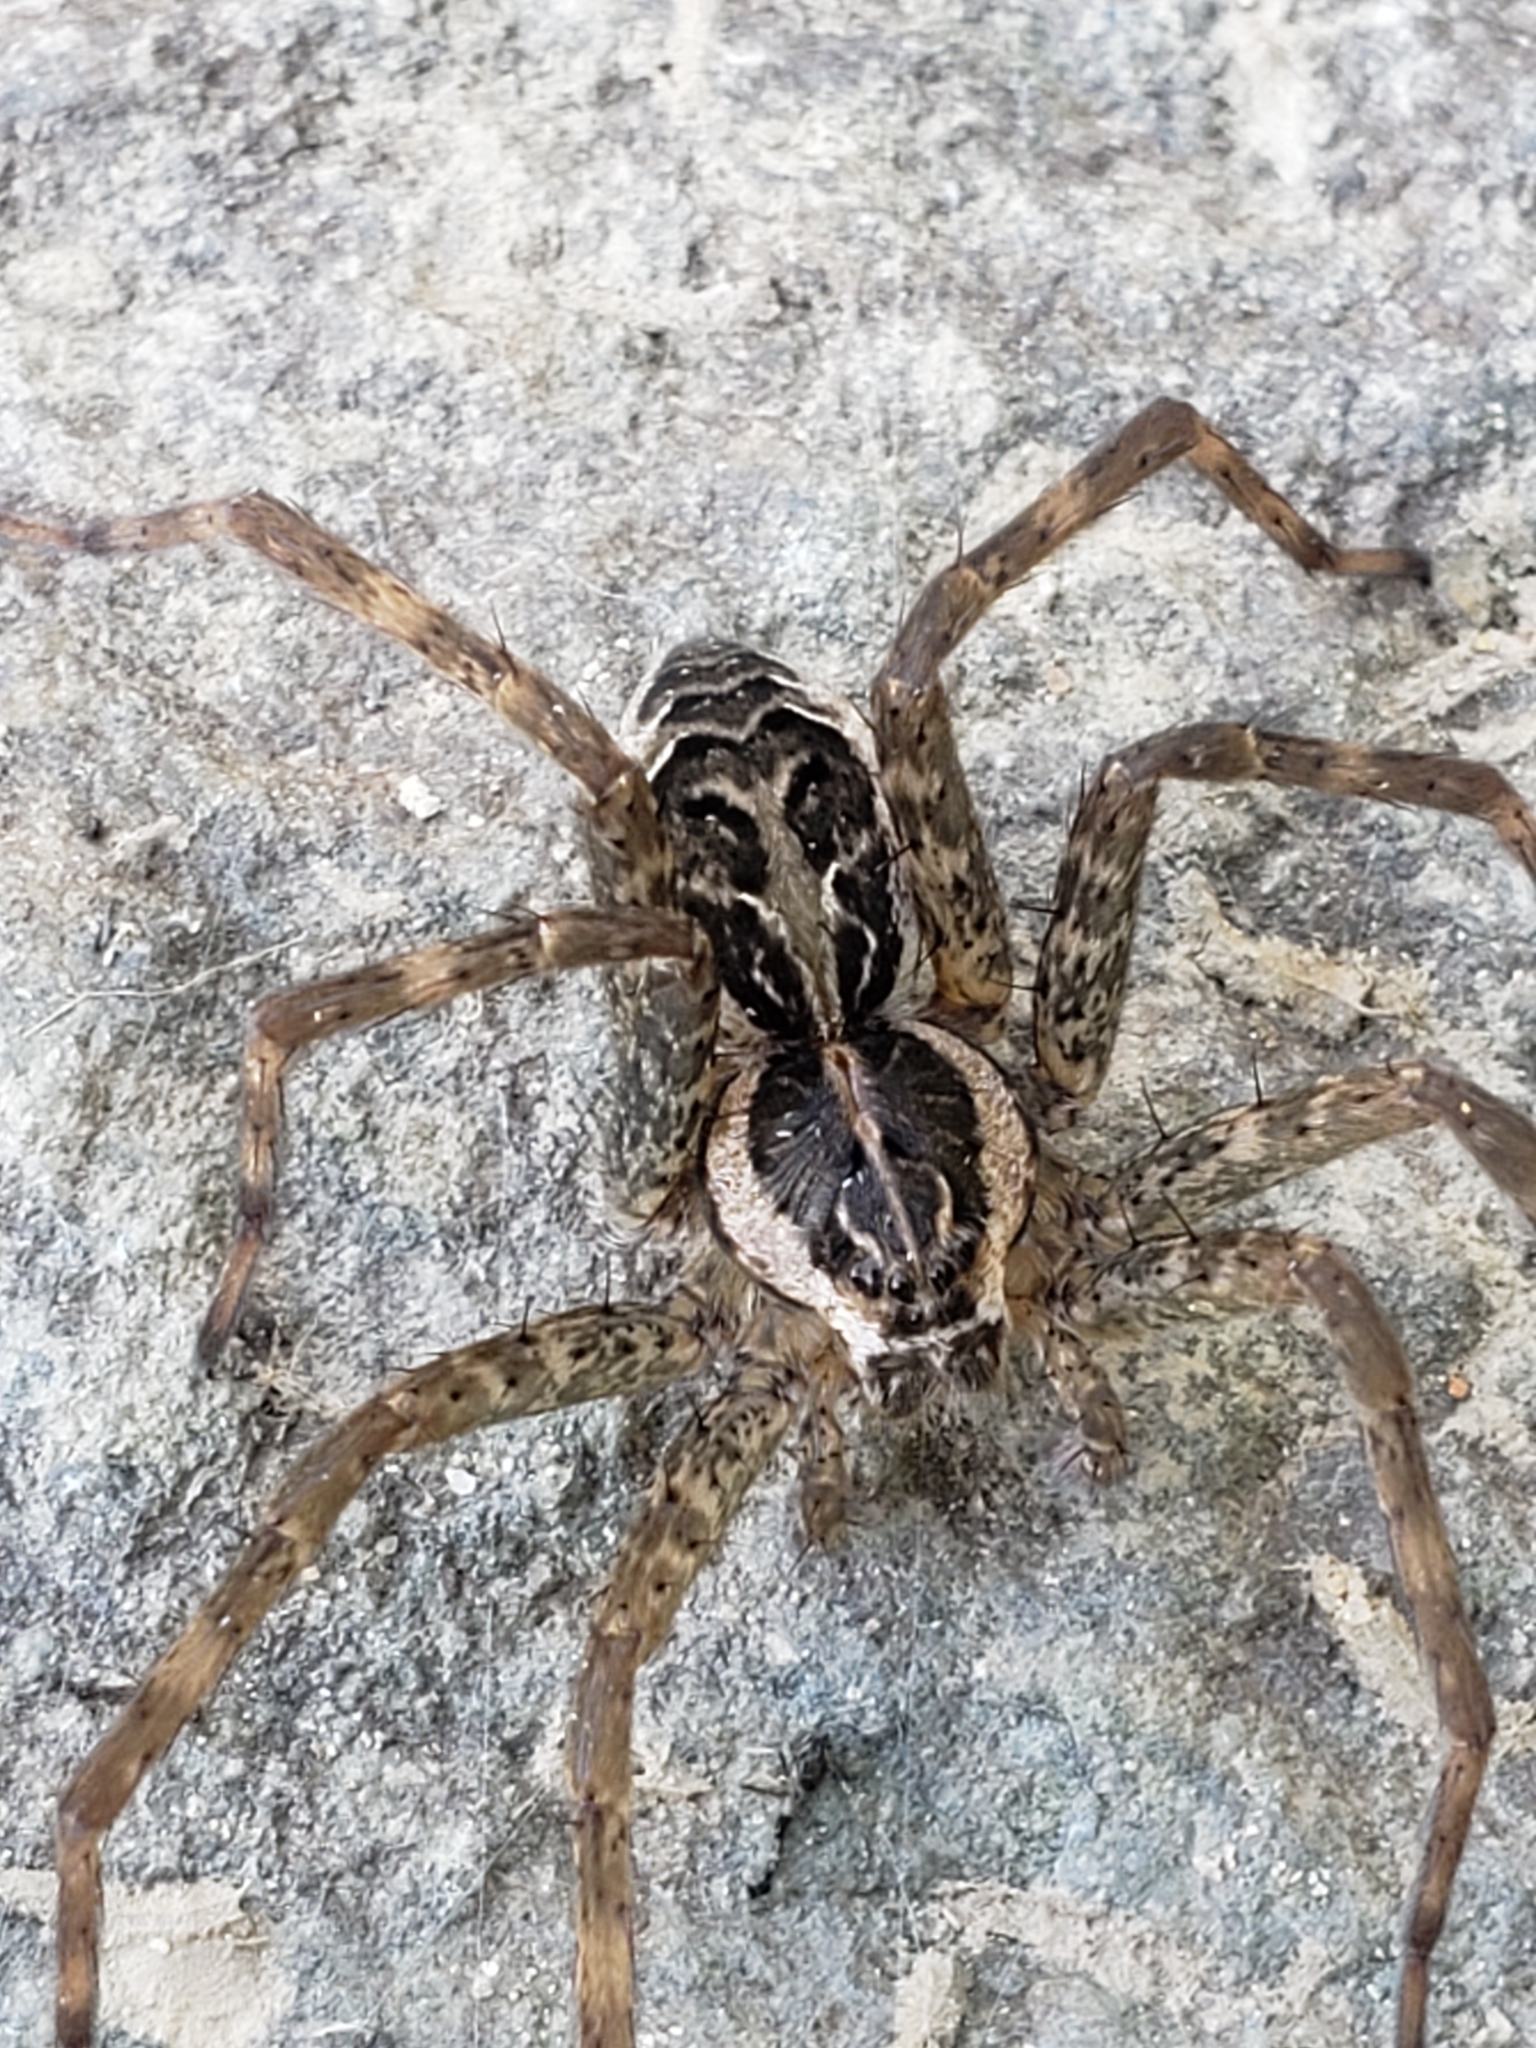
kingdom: Animalia
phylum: Arthropoda
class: Arachnida
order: Araneae
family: Pisauridae
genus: Dolomedes
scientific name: Dolomedes scriptus
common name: Striped fishing spider
